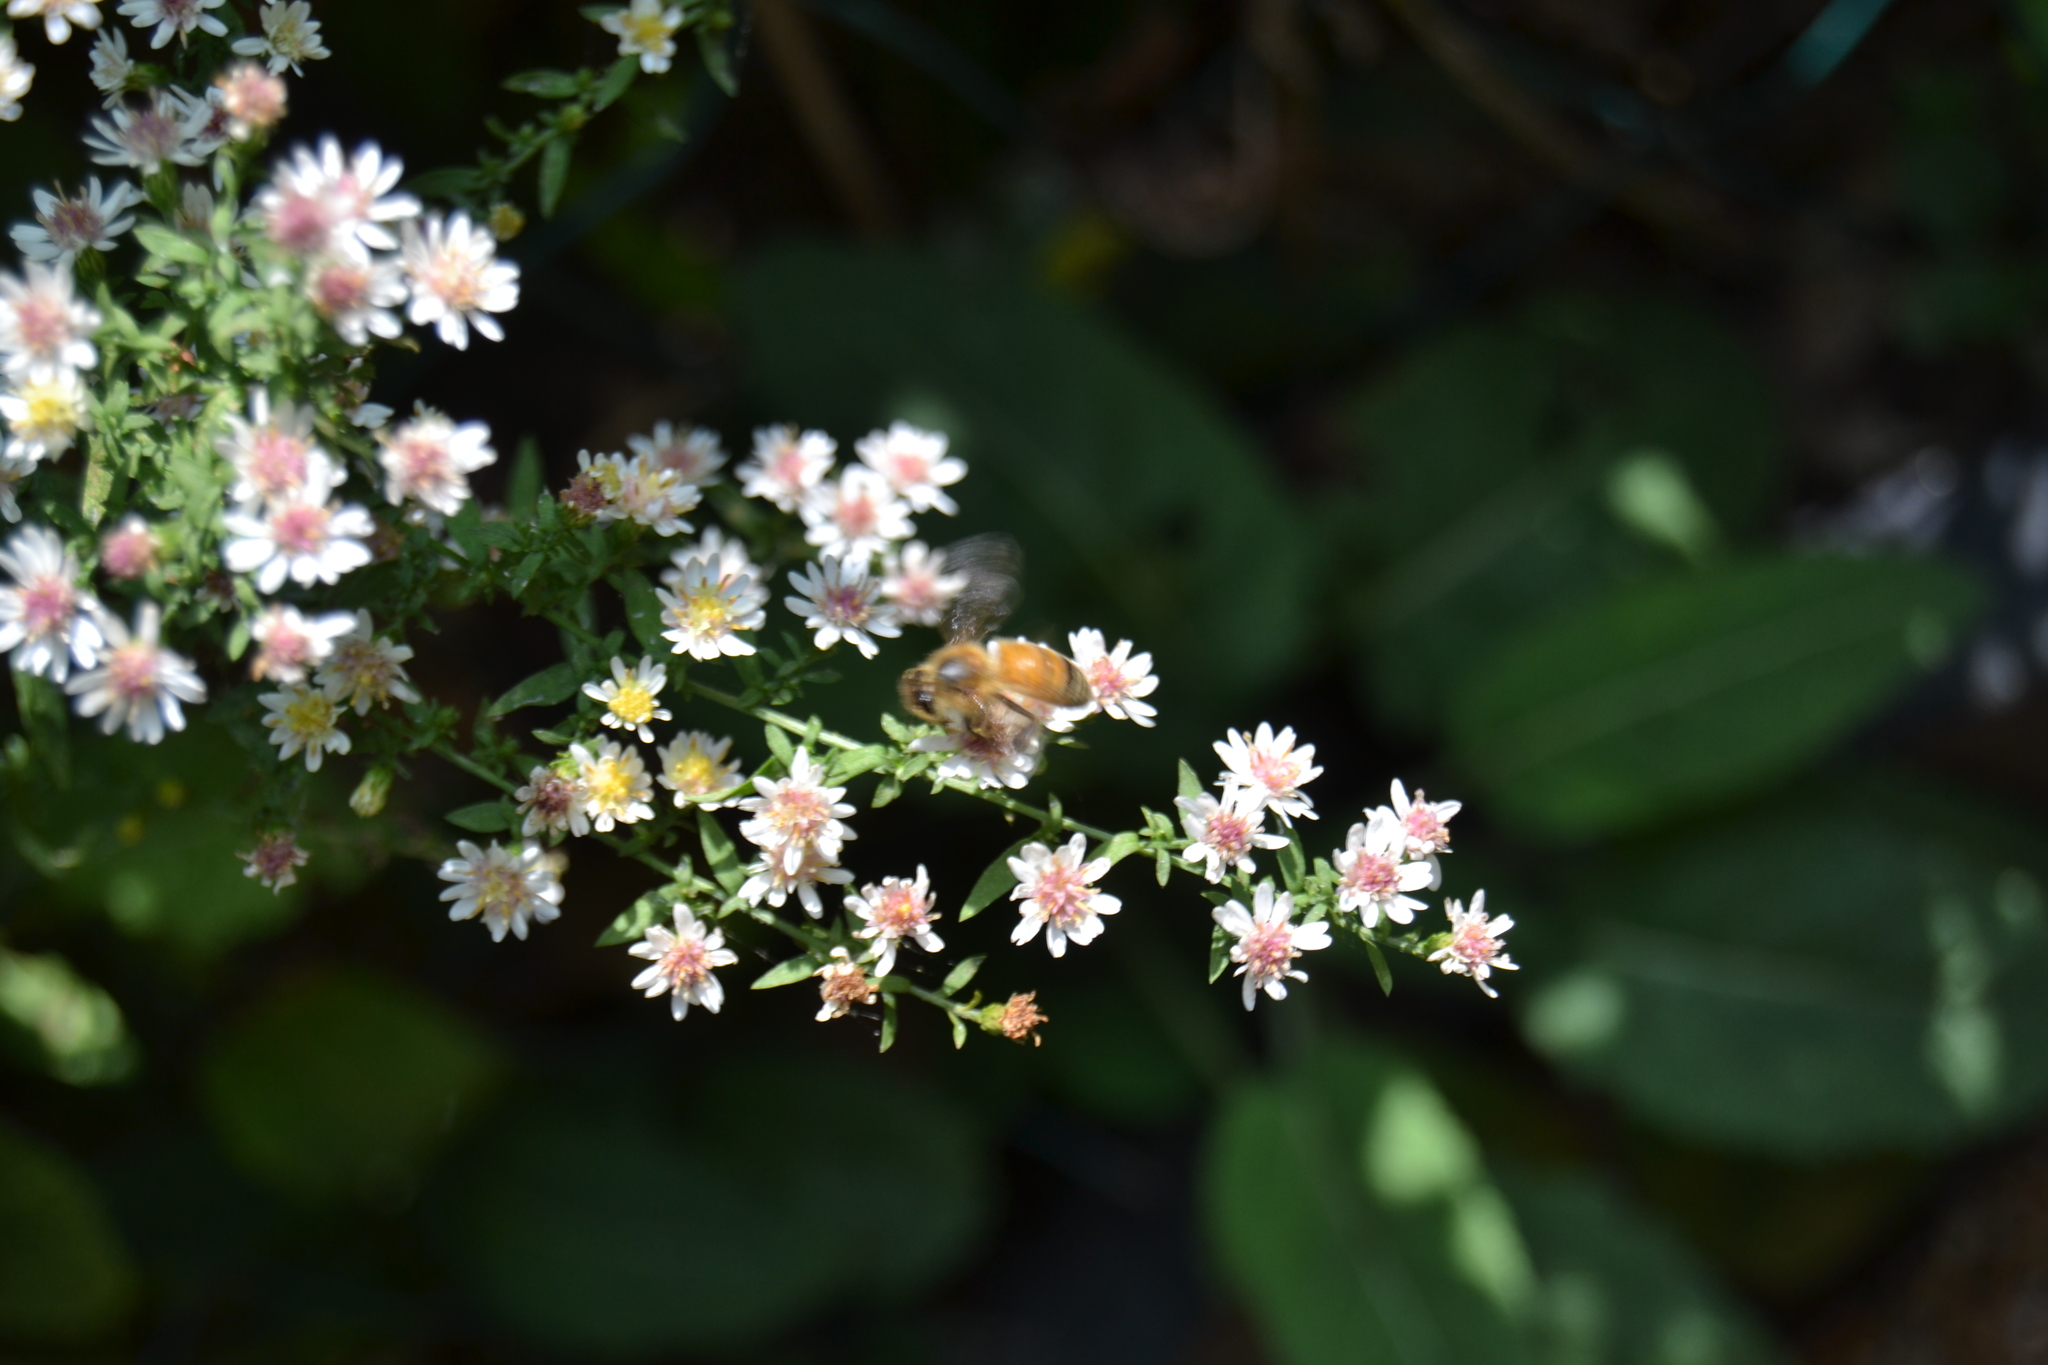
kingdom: Animalia
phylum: Arthropoda
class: Insecta
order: Hymenoptera
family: Apidae
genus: Apis
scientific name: Apis mellifera
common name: Honey bee
